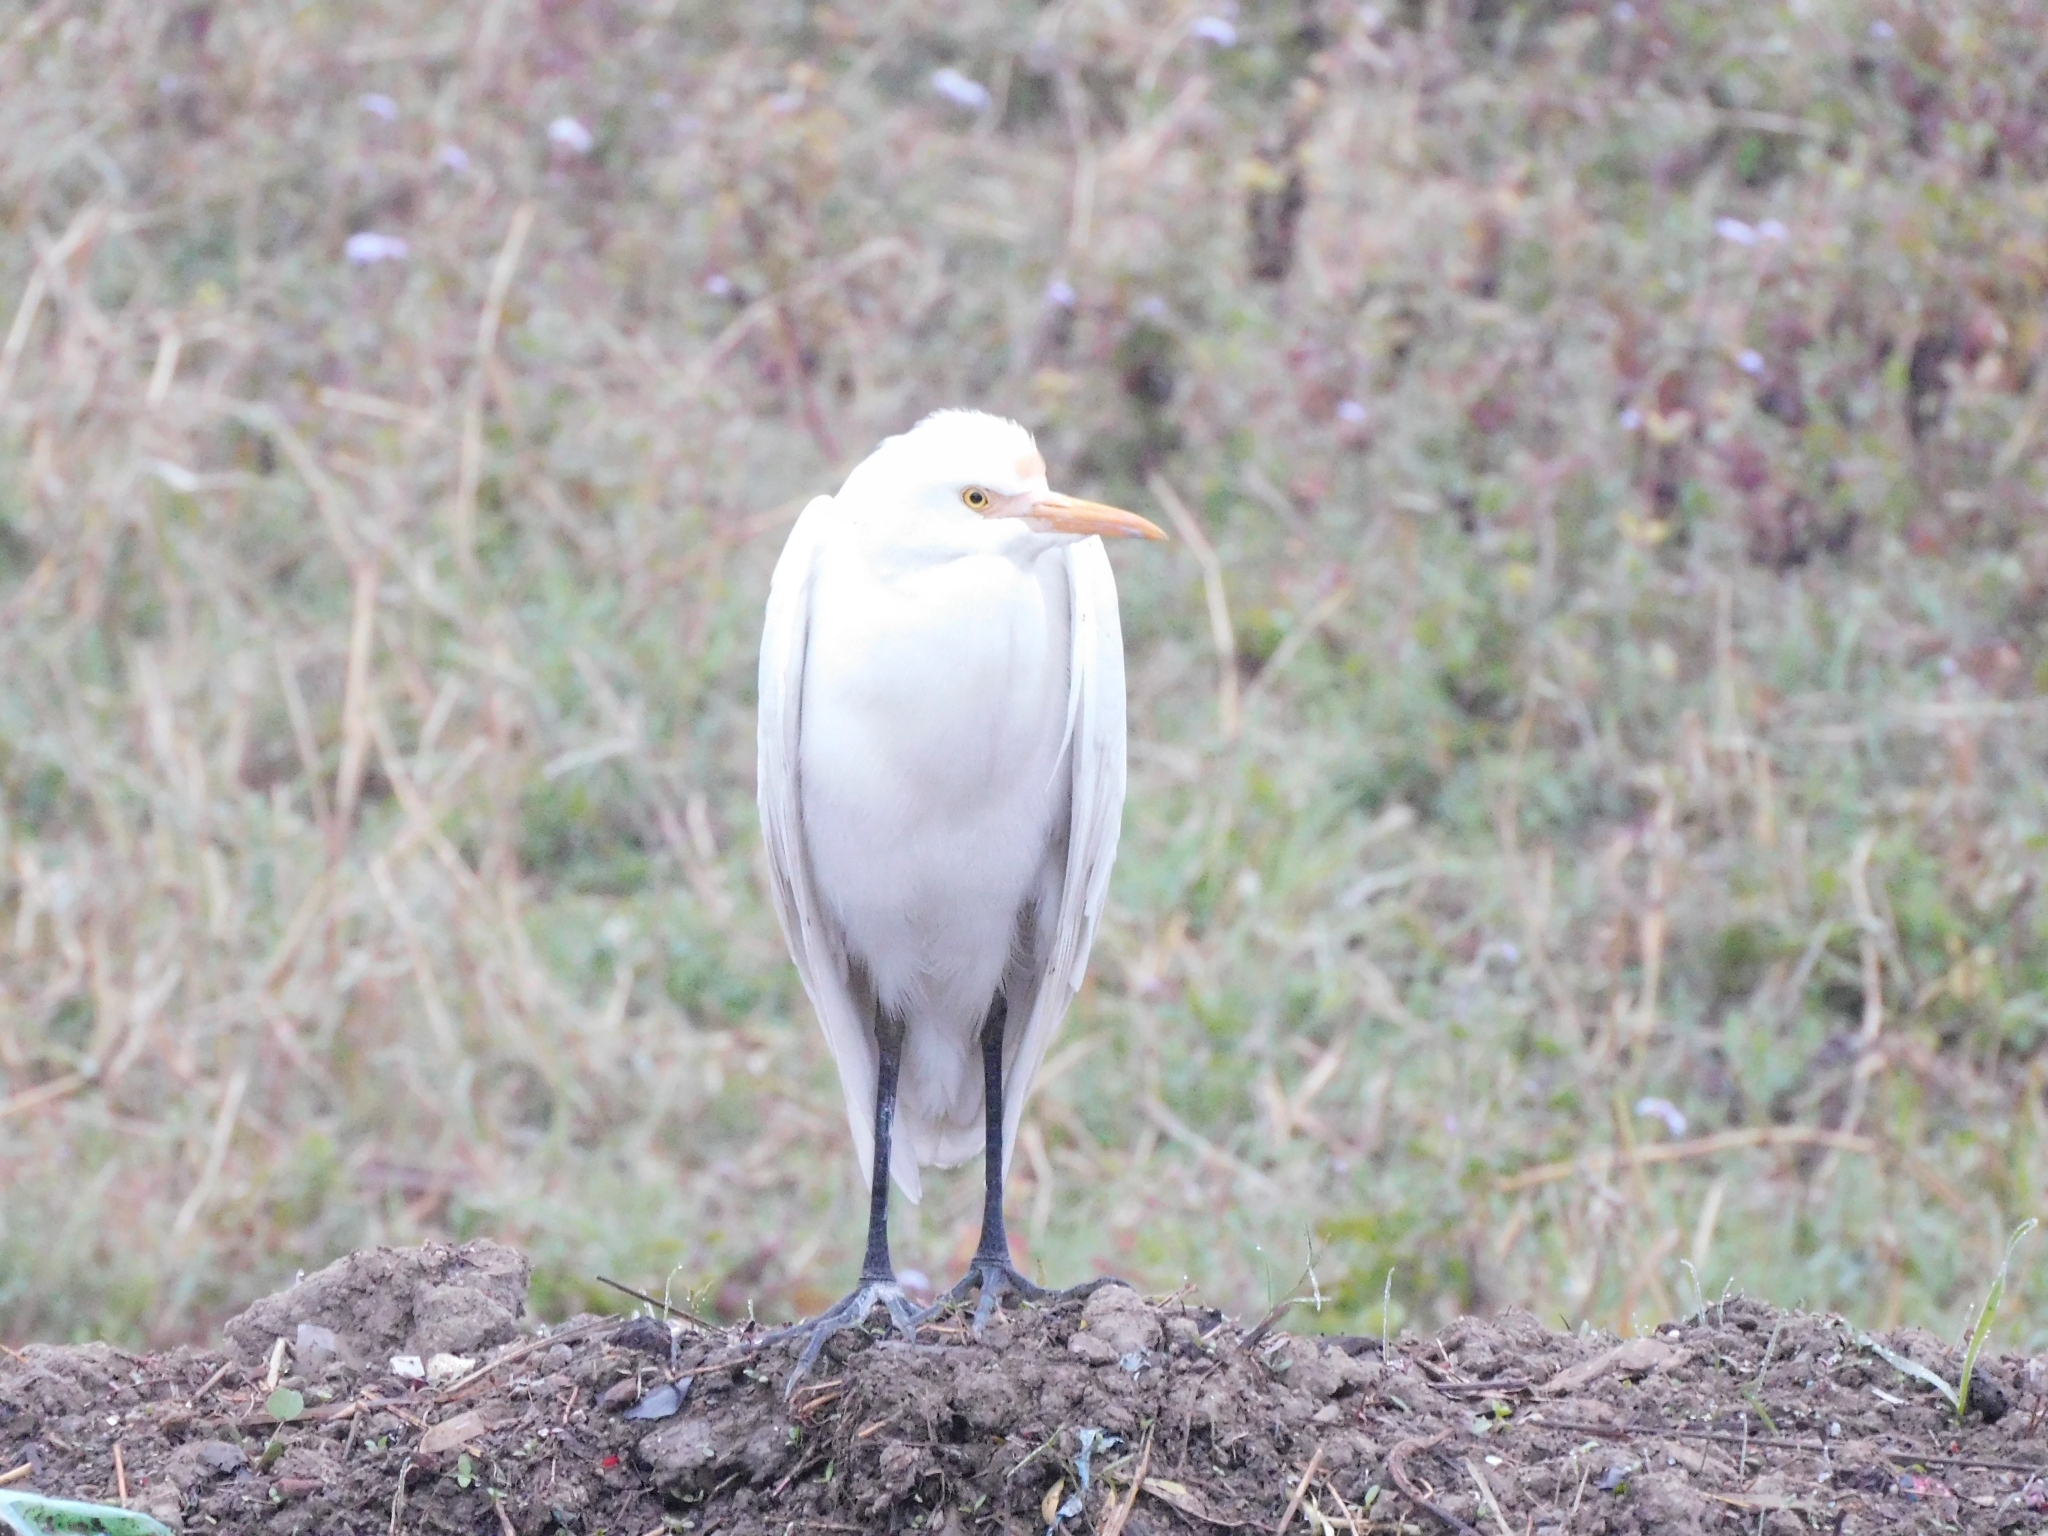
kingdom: Animalia
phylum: Chordata
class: Aves
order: Pelecaniformes
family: Ardeidae
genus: Bubulcus
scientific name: Bubulcus coromandus
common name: Eastern cattle egret
